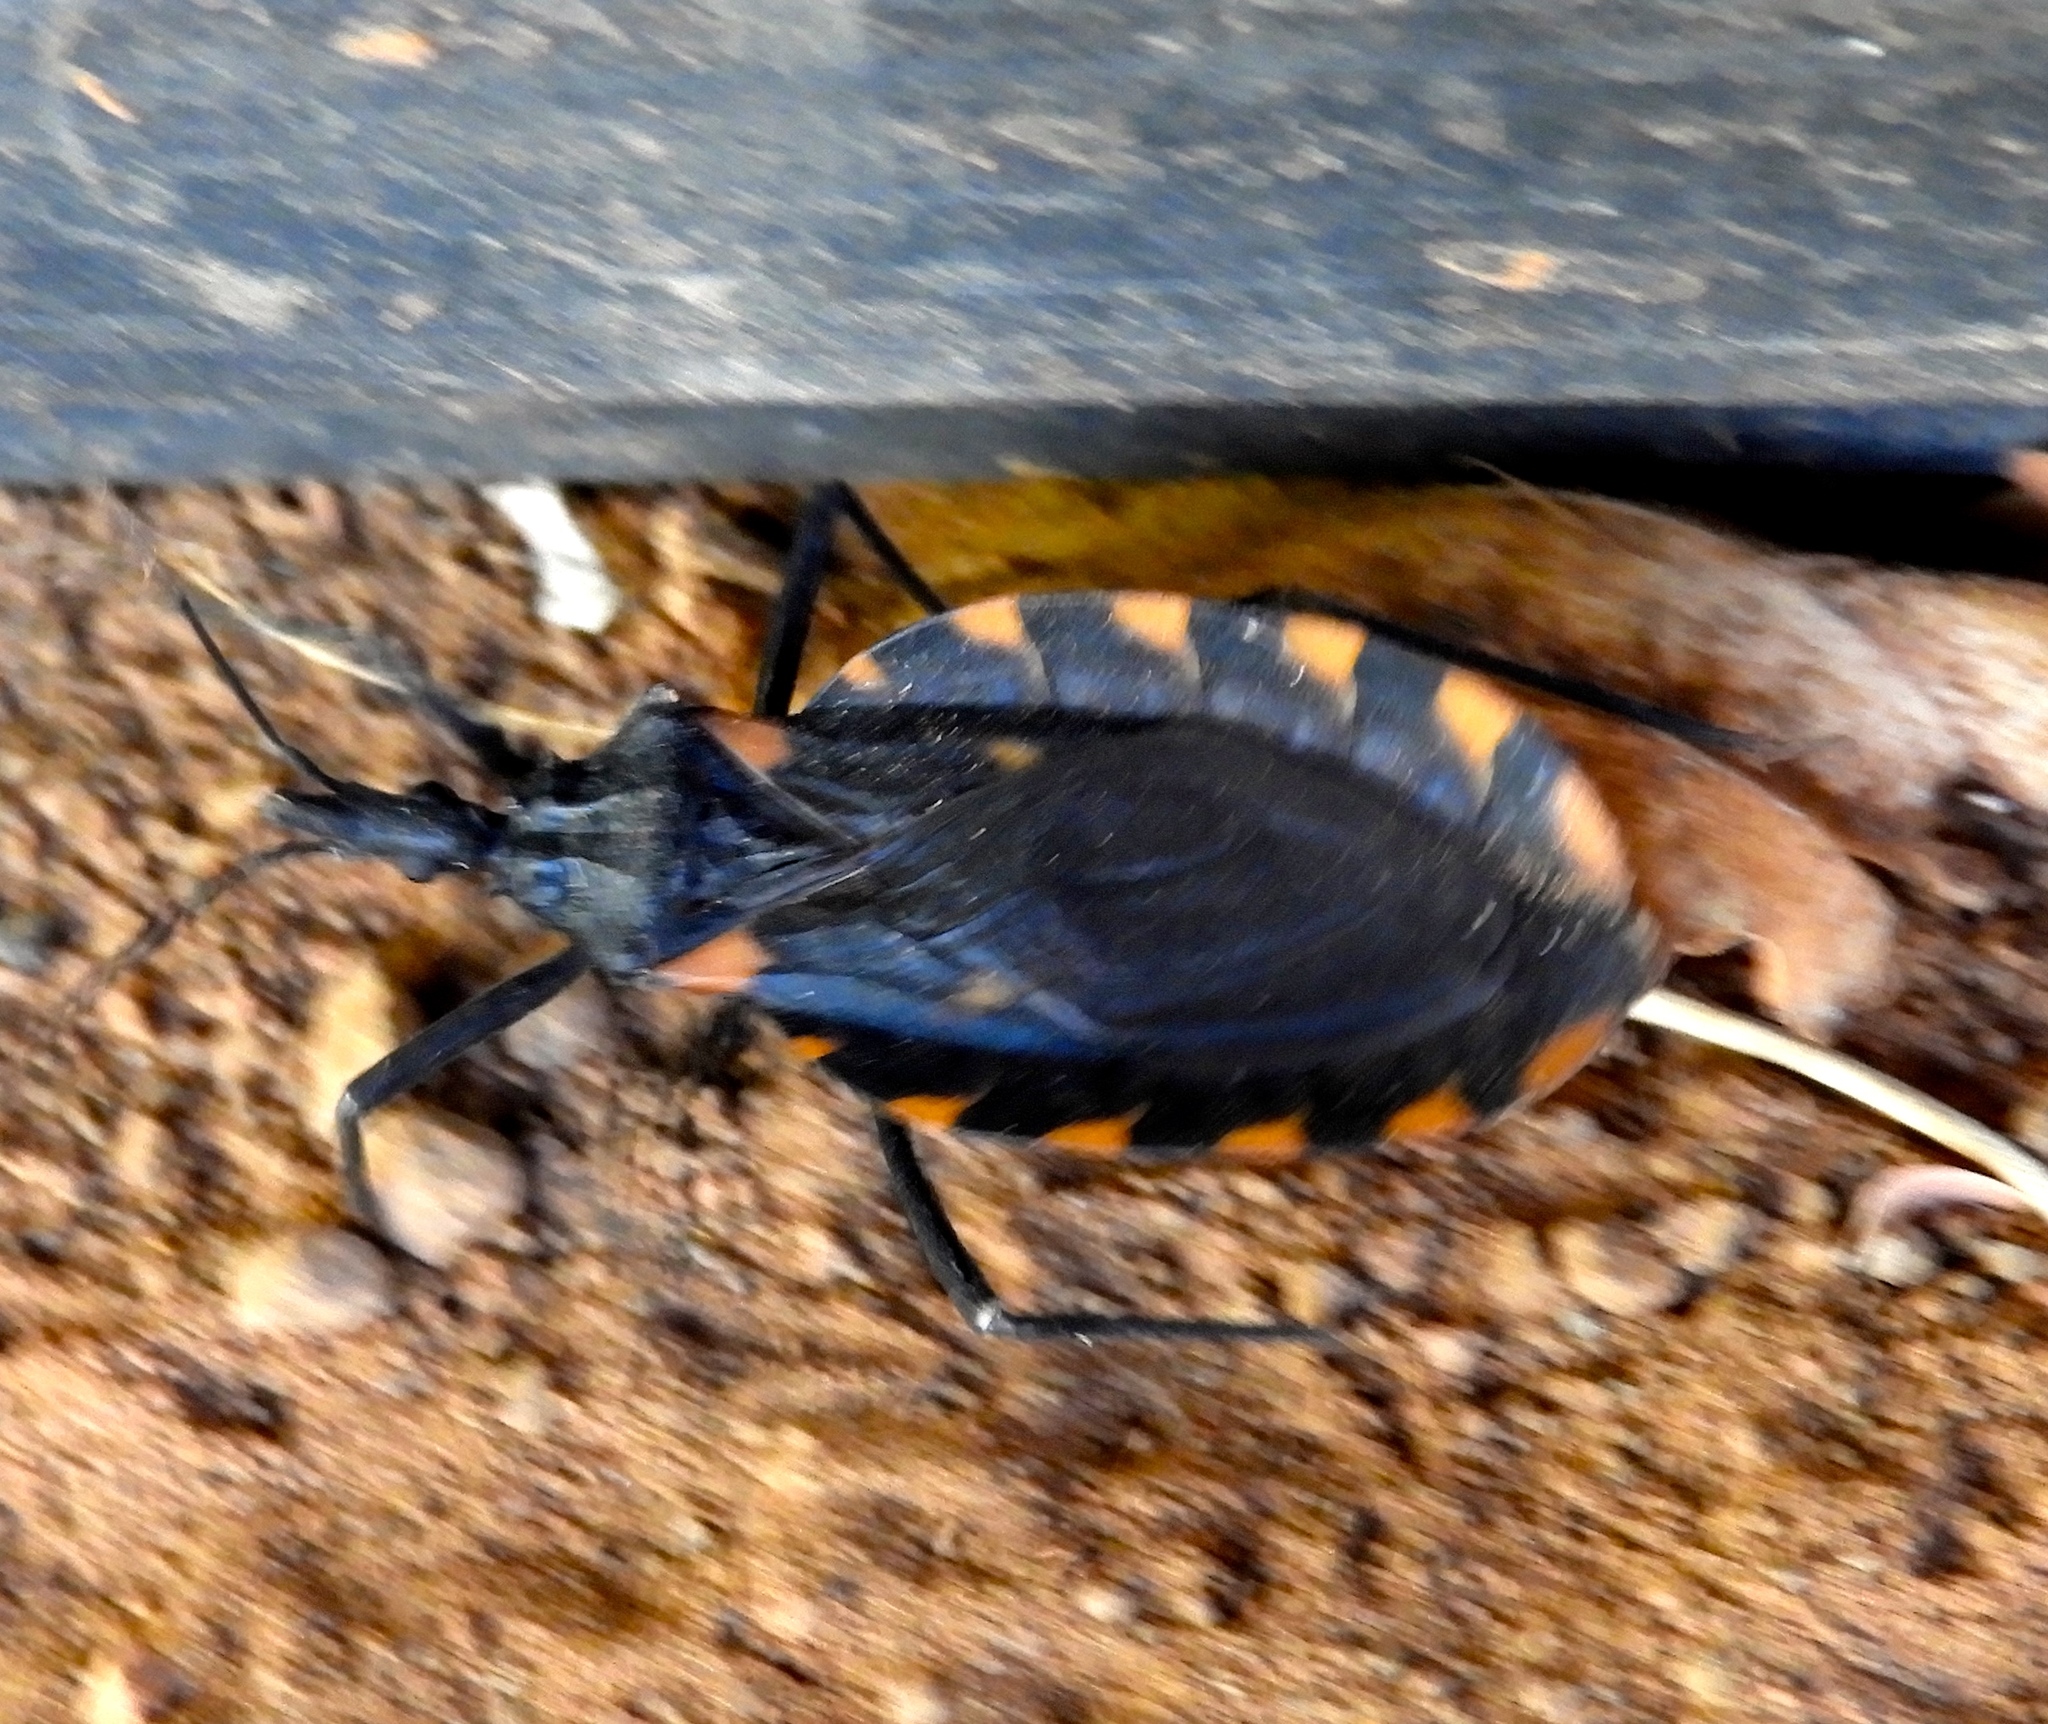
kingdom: Animalia
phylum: Arthropoda
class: Insecta
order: Hemiptera
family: Reduviidae
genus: Meccus
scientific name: Meccus longipennis
